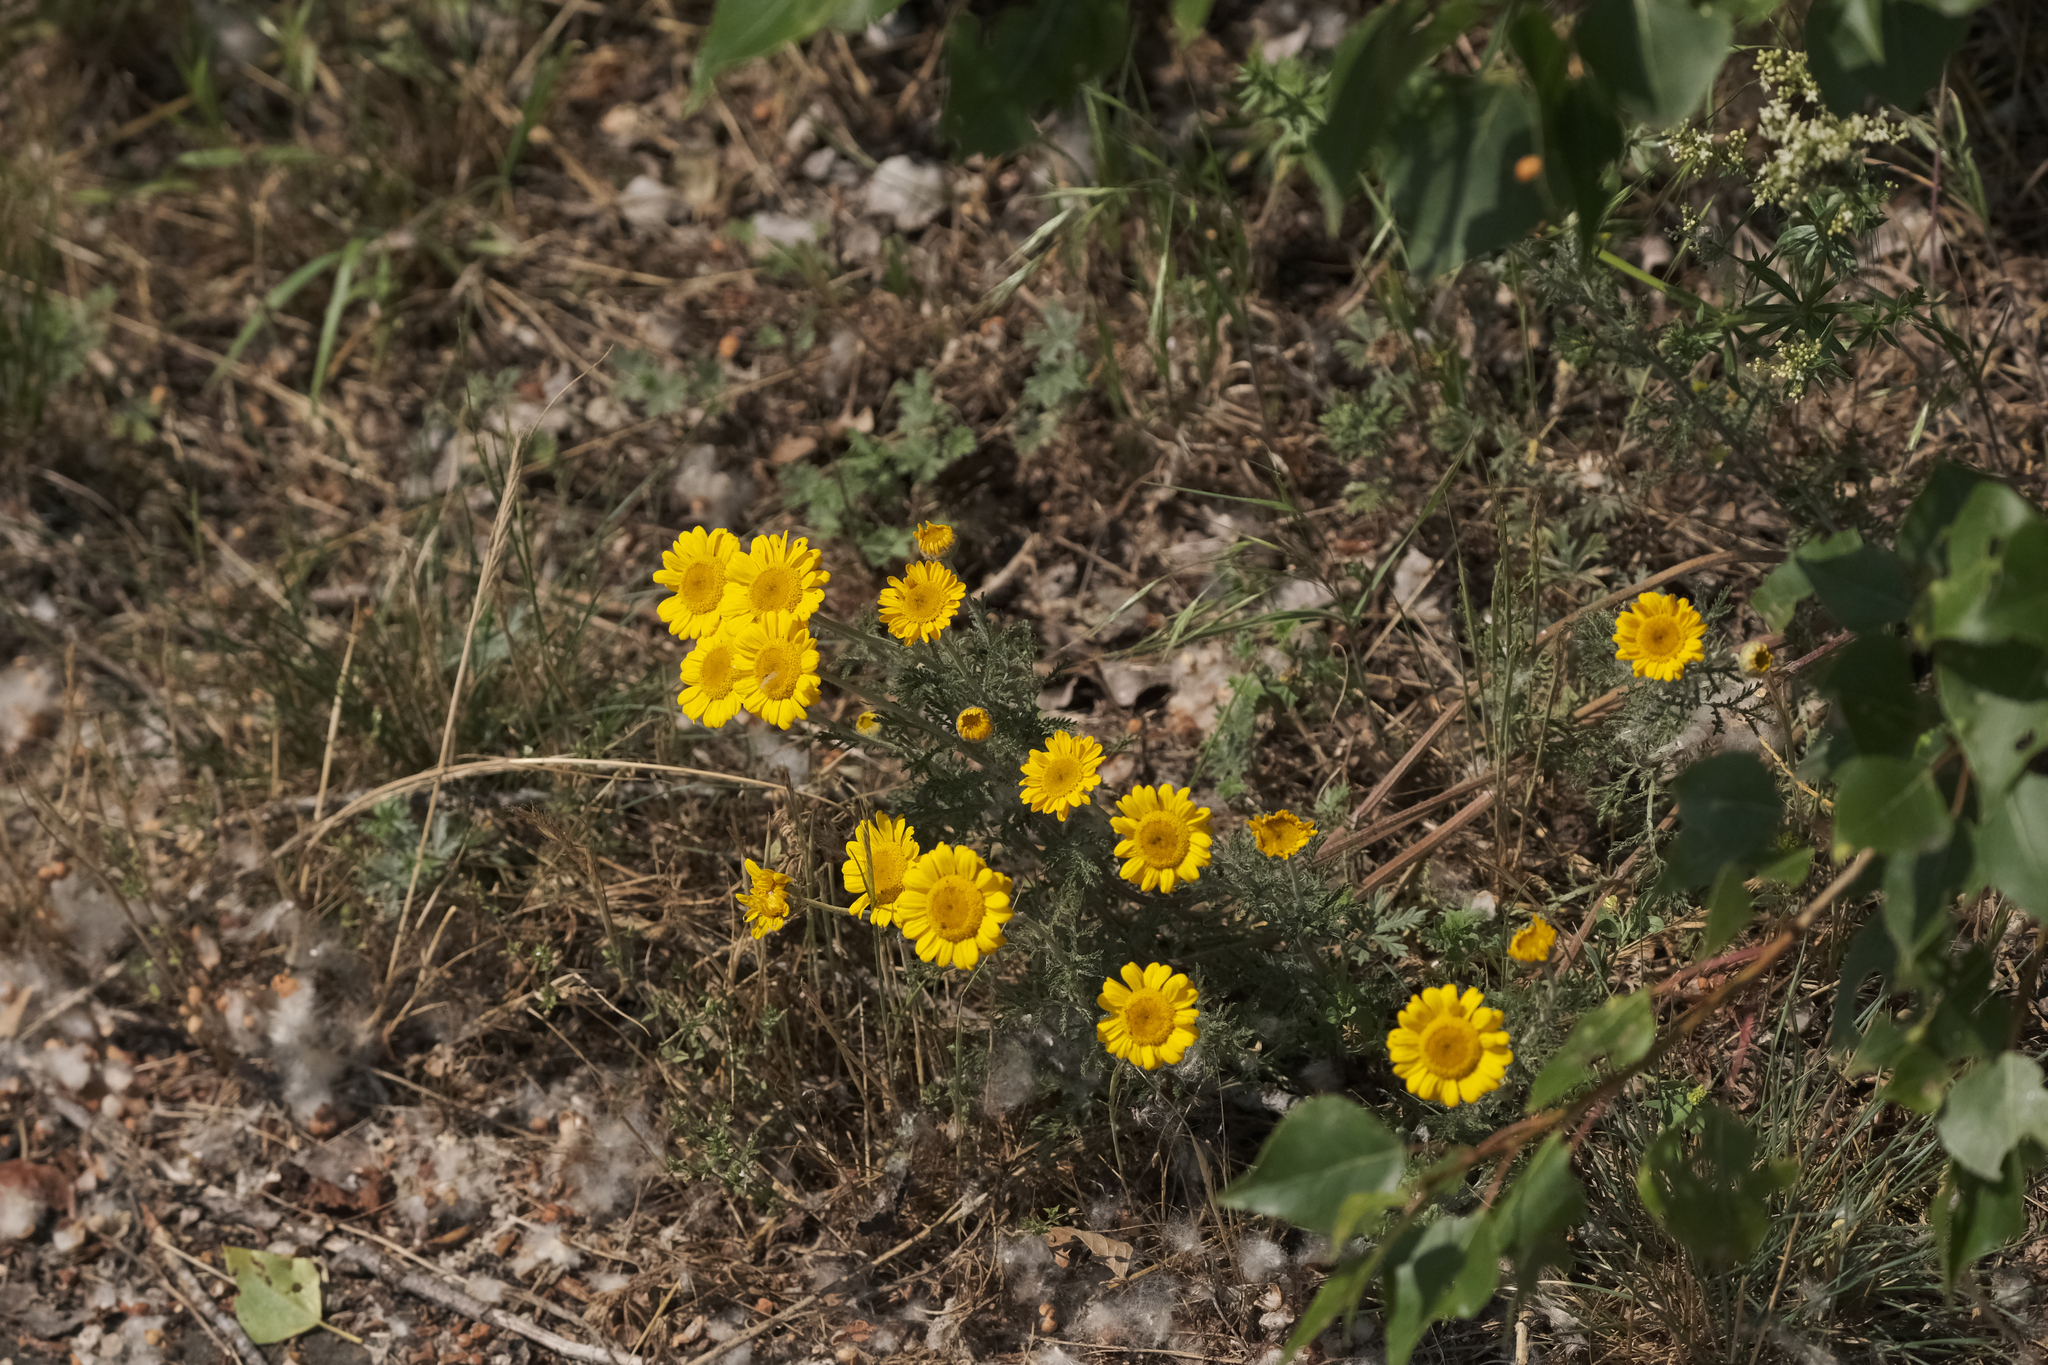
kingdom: Plantae
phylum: Tracheophyta
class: Magnoliopsida
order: Asterales
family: Asteraceae
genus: Cota
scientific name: Cota tinctoria
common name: Golden chamomile
